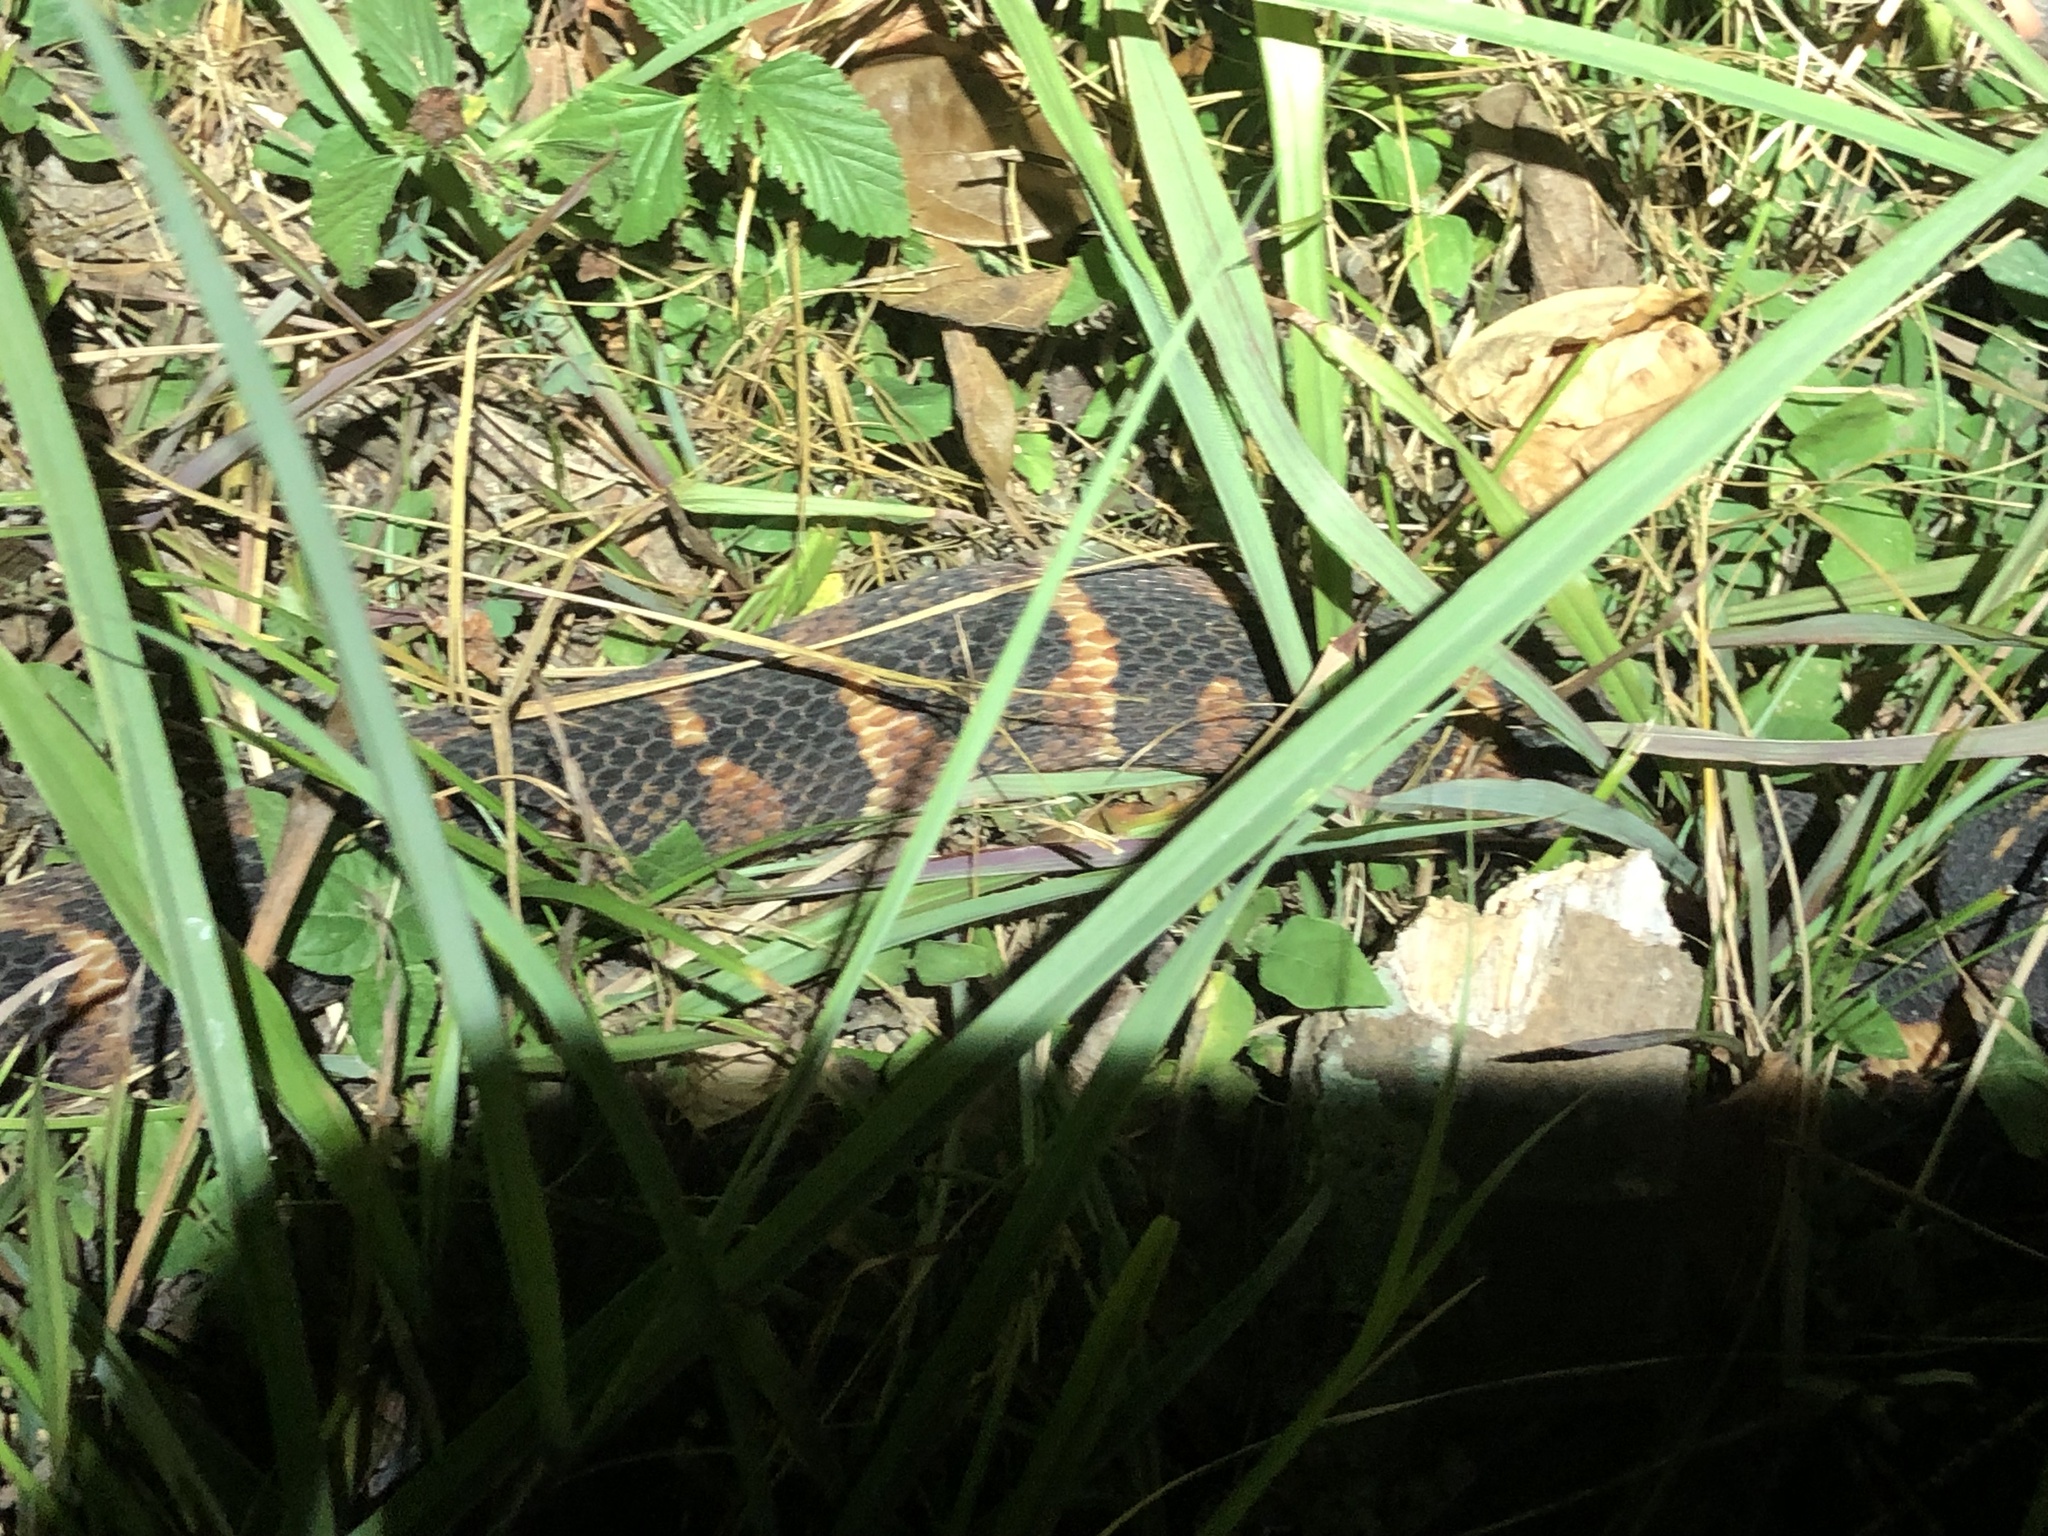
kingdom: Animalia
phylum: Chordata
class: Squamata
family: Colubridae
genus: Nerodia
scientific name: Nerodia fasciata
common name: Southern water snake
